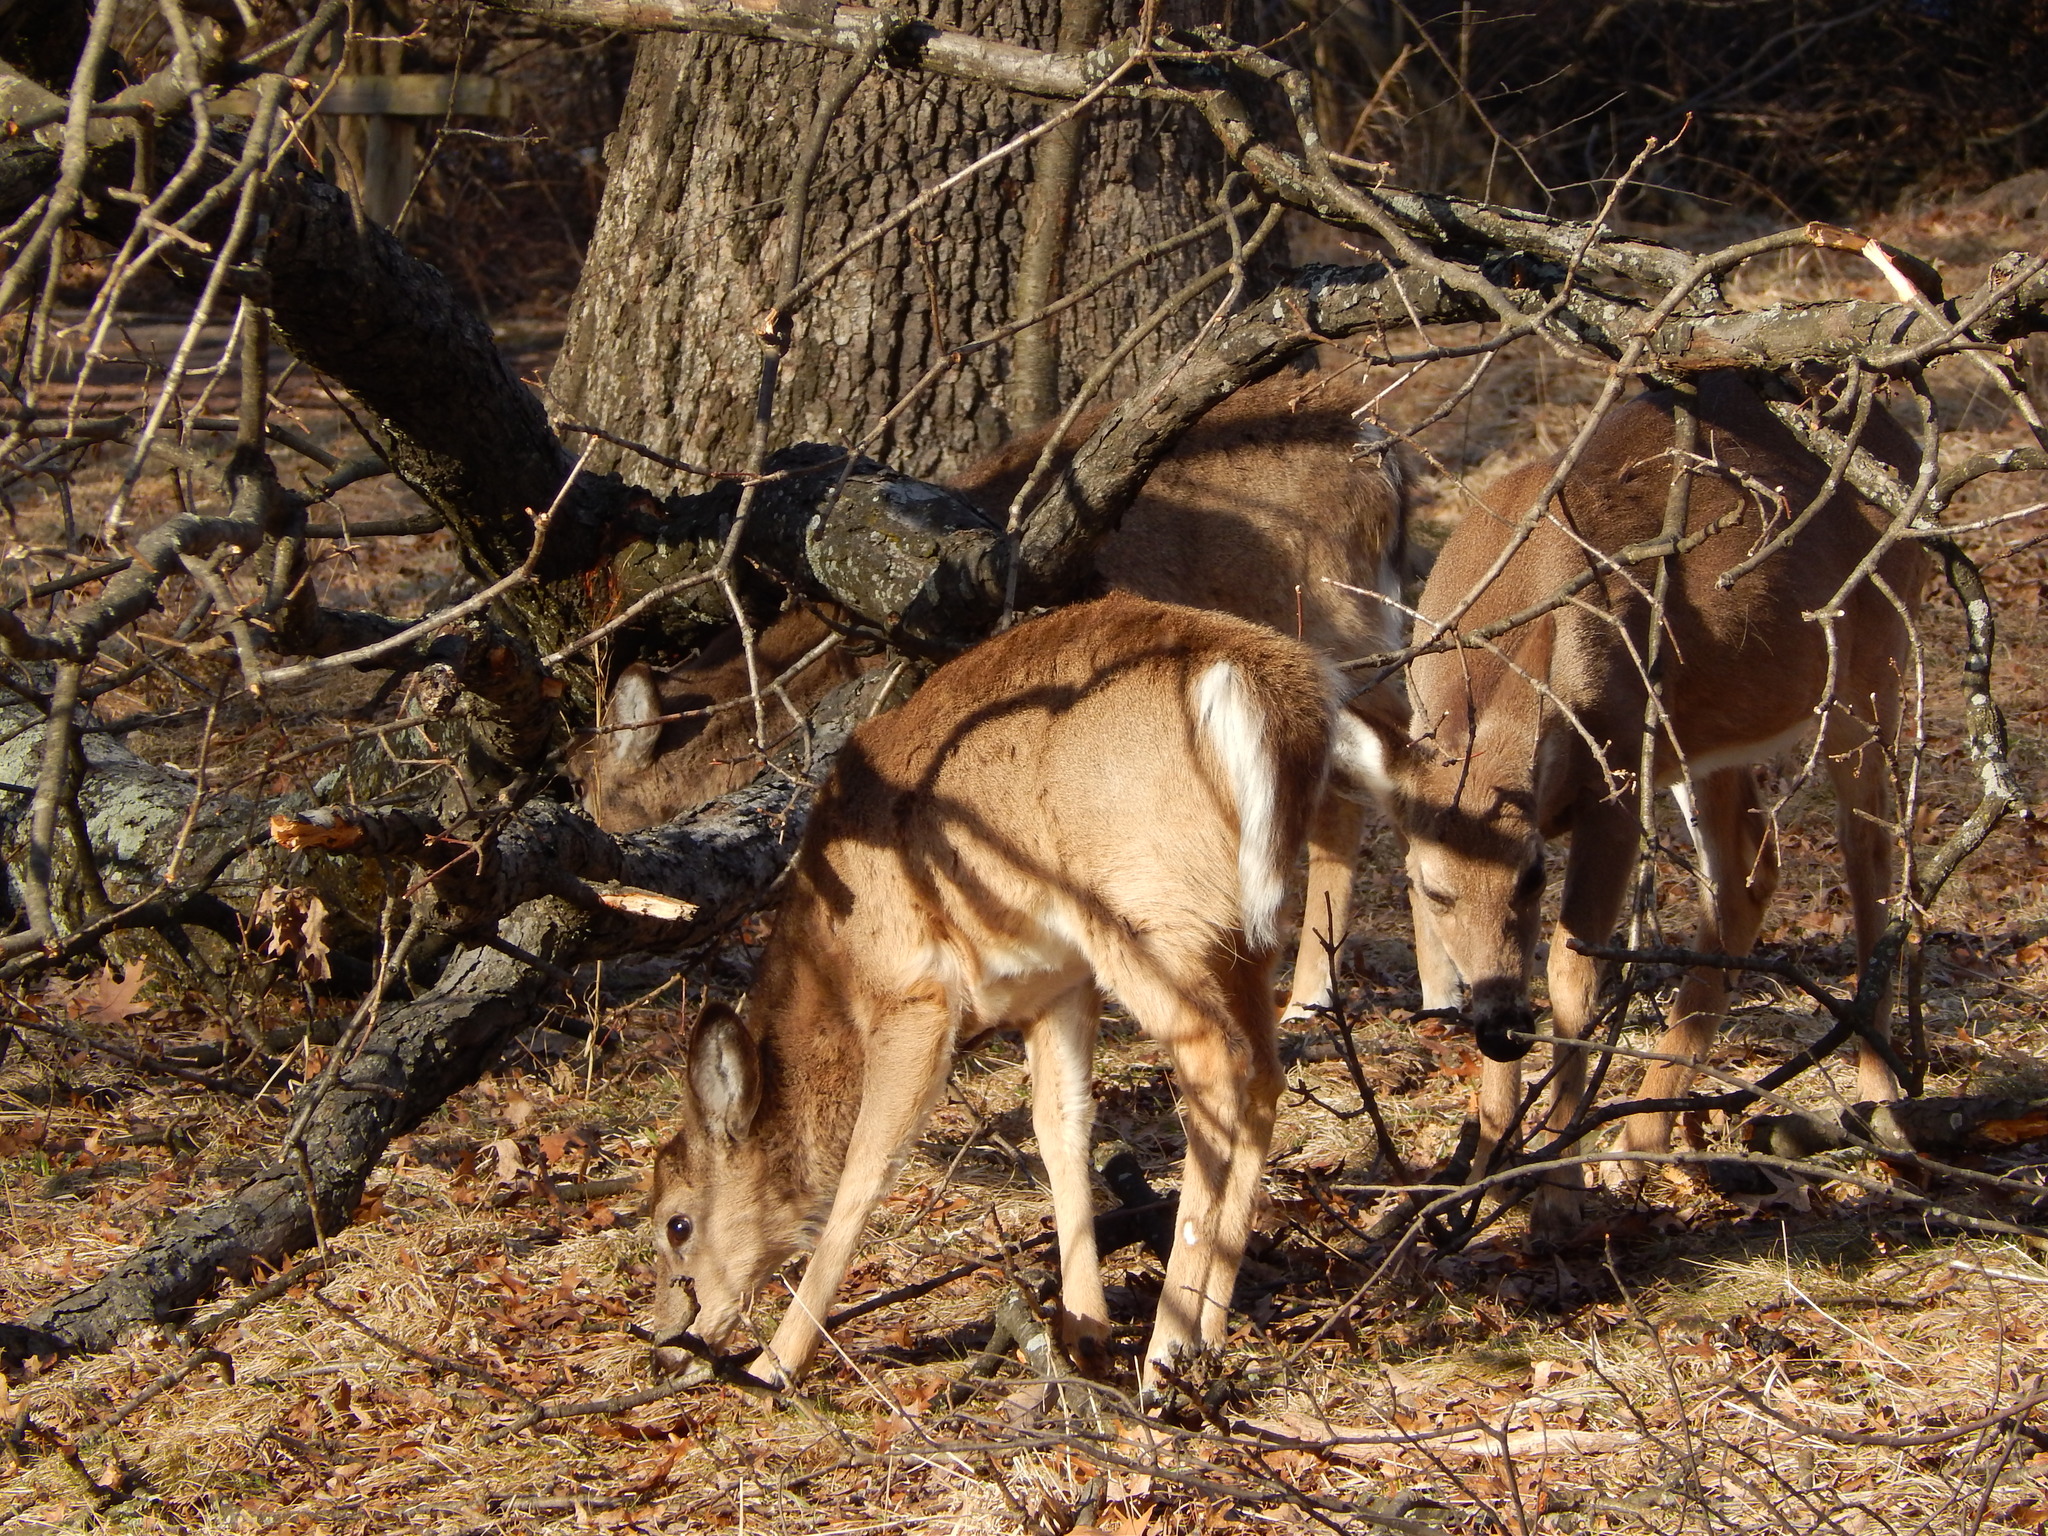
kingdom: Animalia
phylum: Chordata
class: Mammalia
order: Artiodactyla
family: Cervidae
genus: Odocoileus
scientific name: Odocoileus virginianus
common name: White-tailed deer
